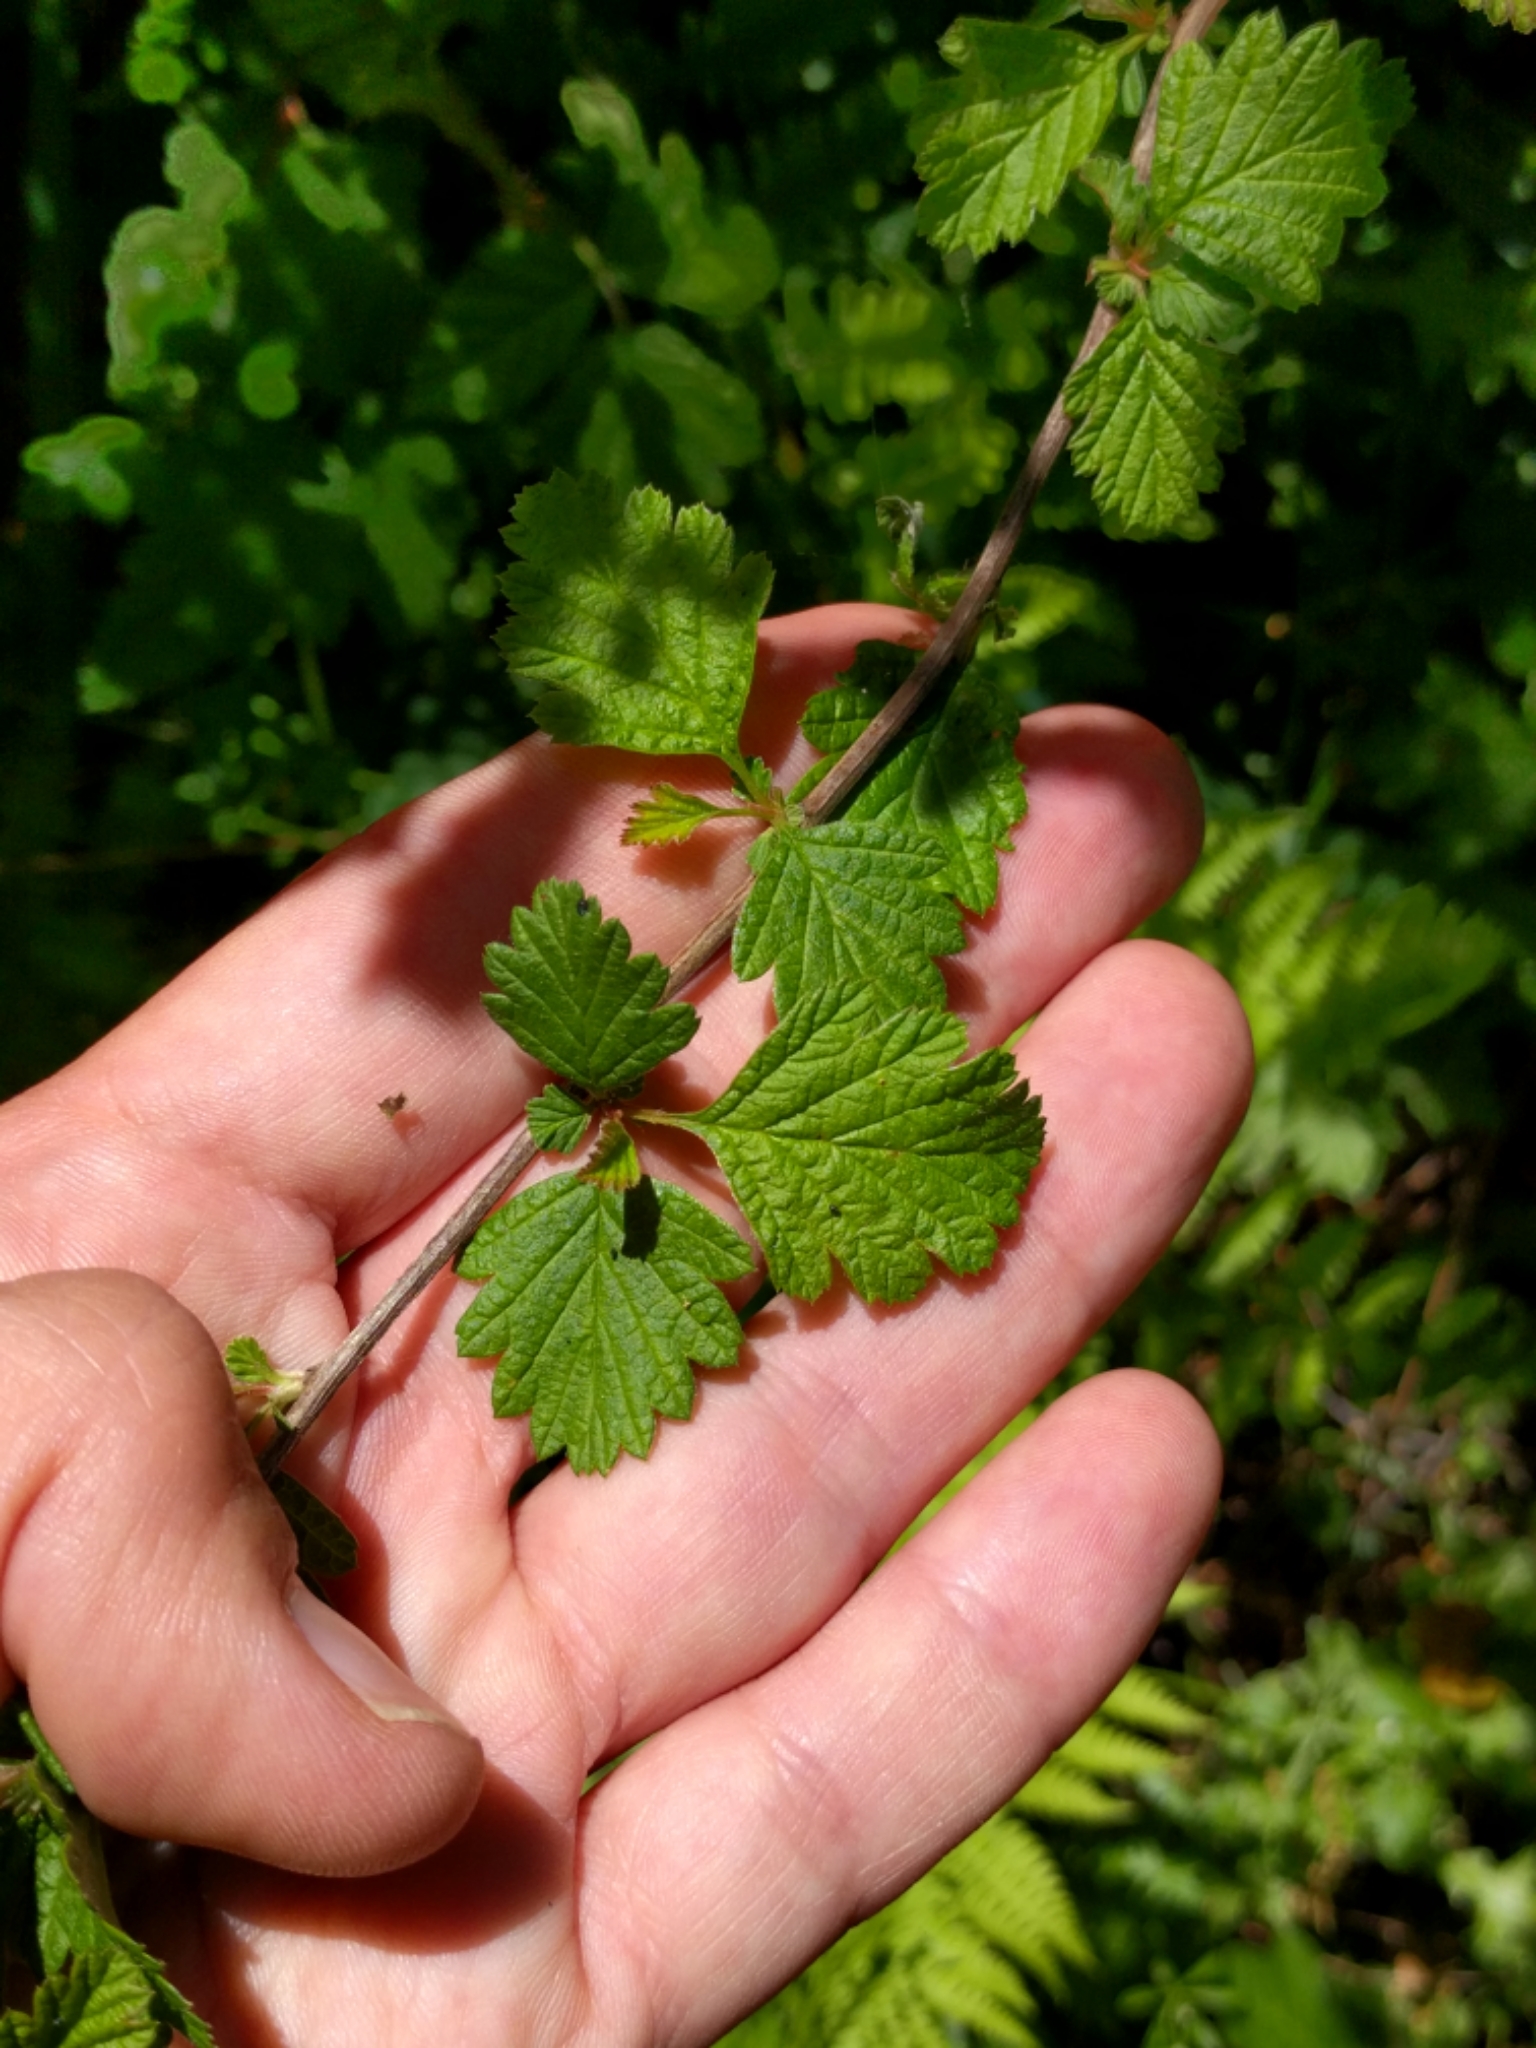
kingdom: Plantae
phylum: Tracheophyta
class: Magnoliopsida
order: Rosales
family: Rosaceae
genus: Holodiscus
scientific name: Holodiscus discolor
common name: Oceanspray
